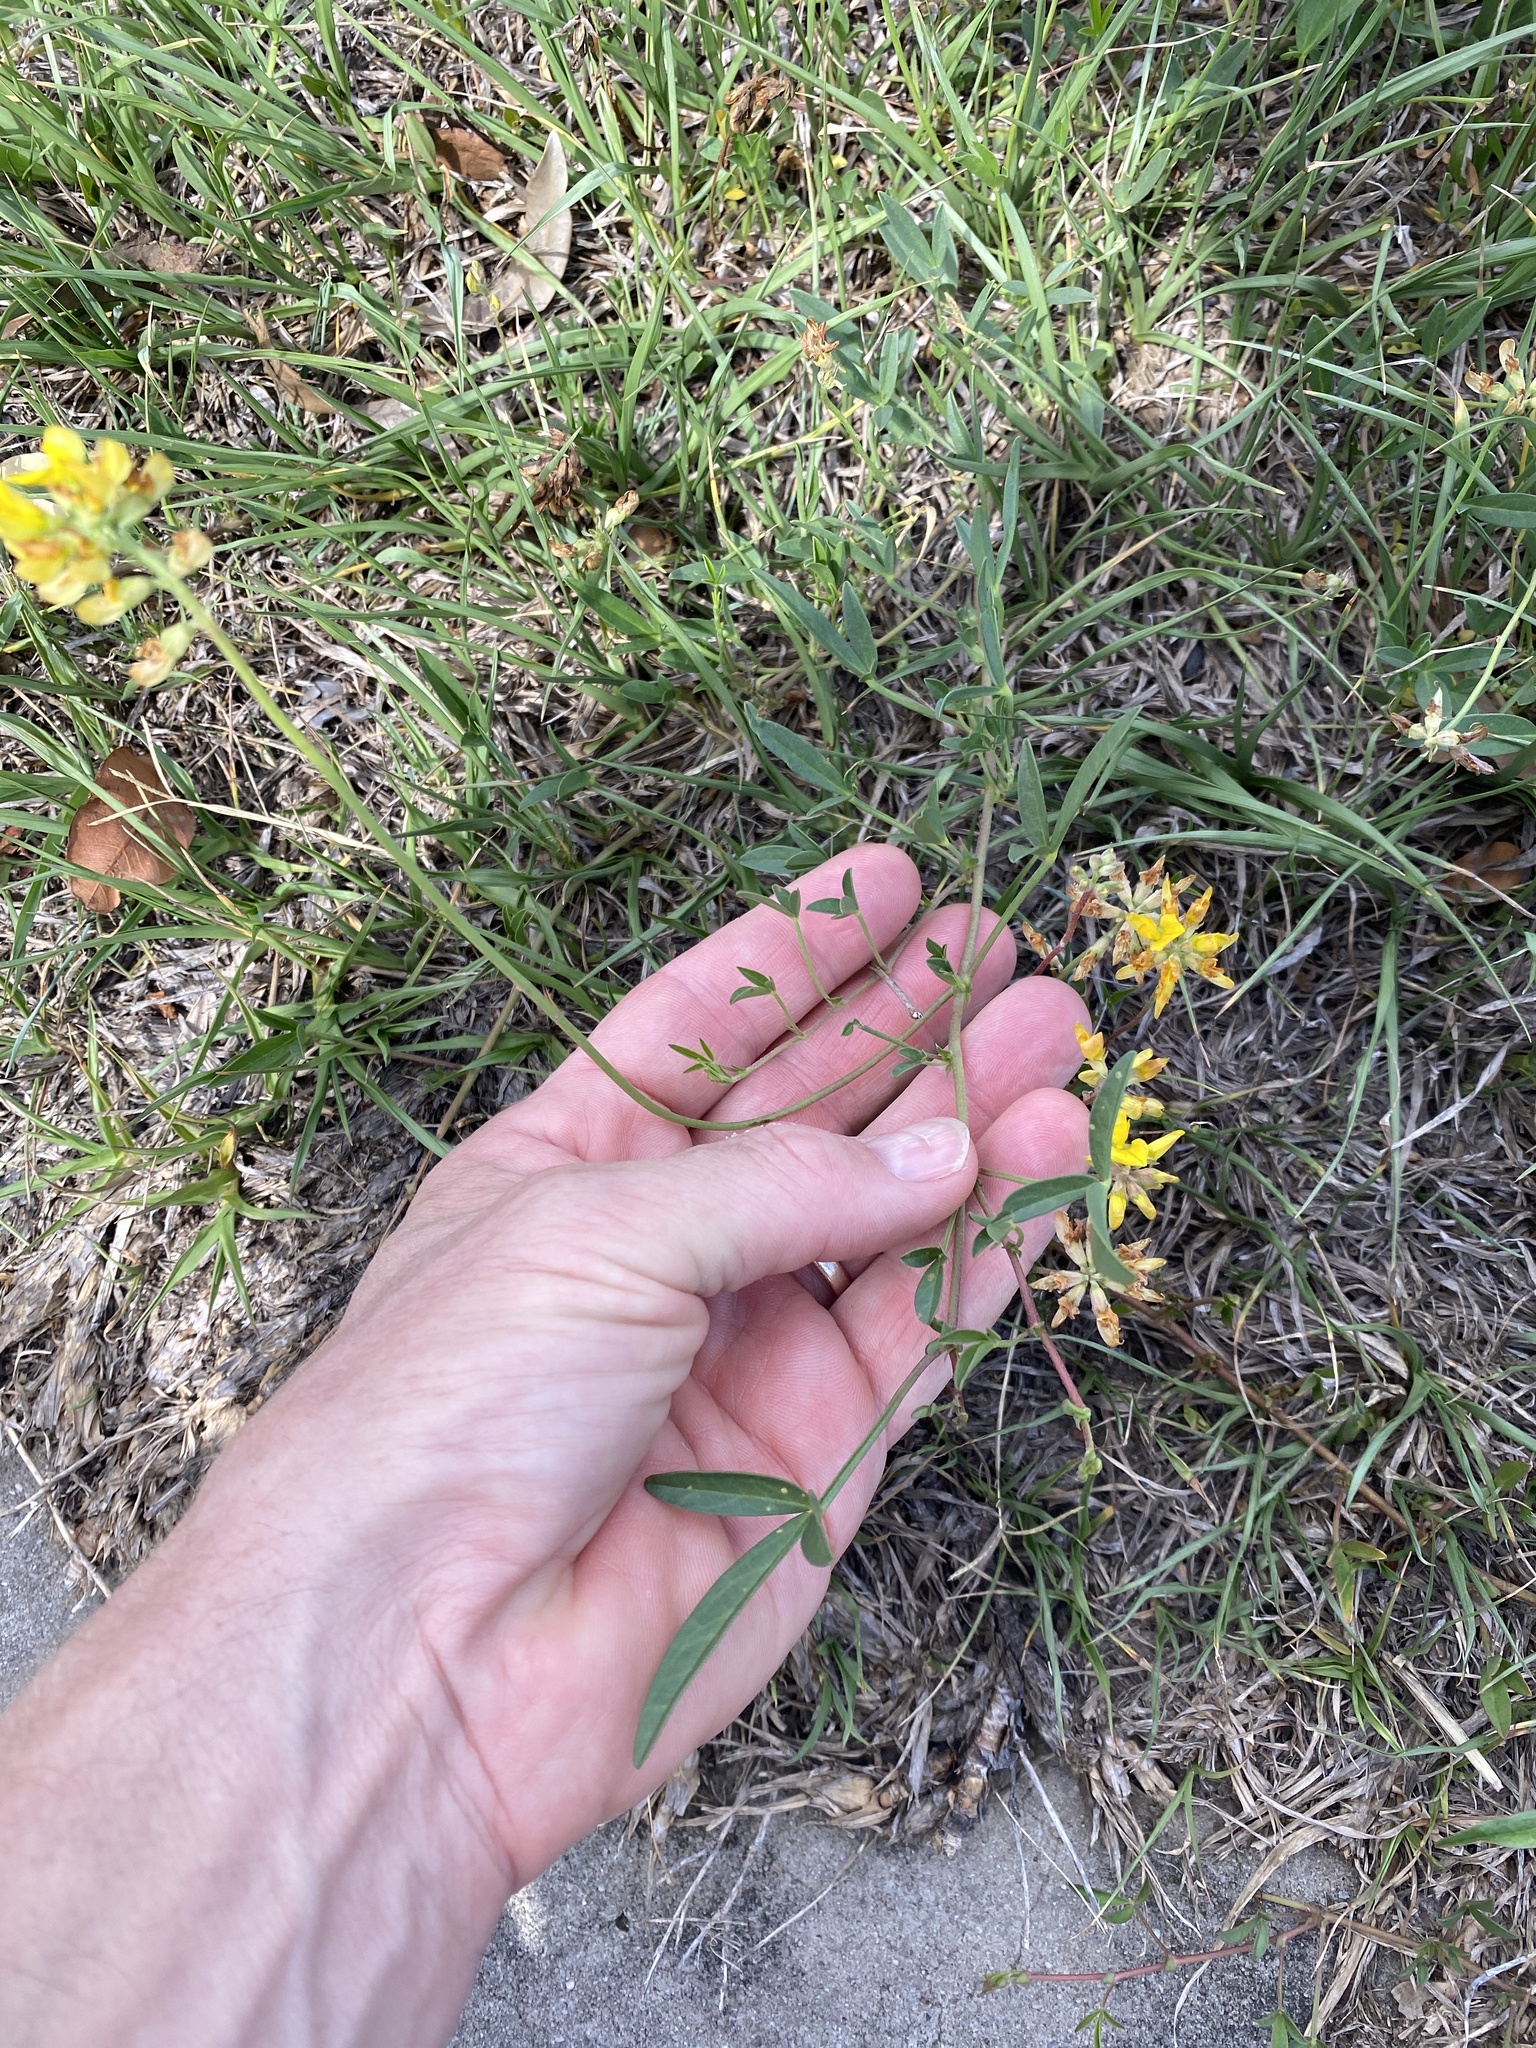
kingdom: Plantae
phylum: Tracheophyta
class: Magnoliopsida
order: Fabales
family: Fabaceae
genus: Listia
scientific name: Listia bainesii
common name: Lotononis
